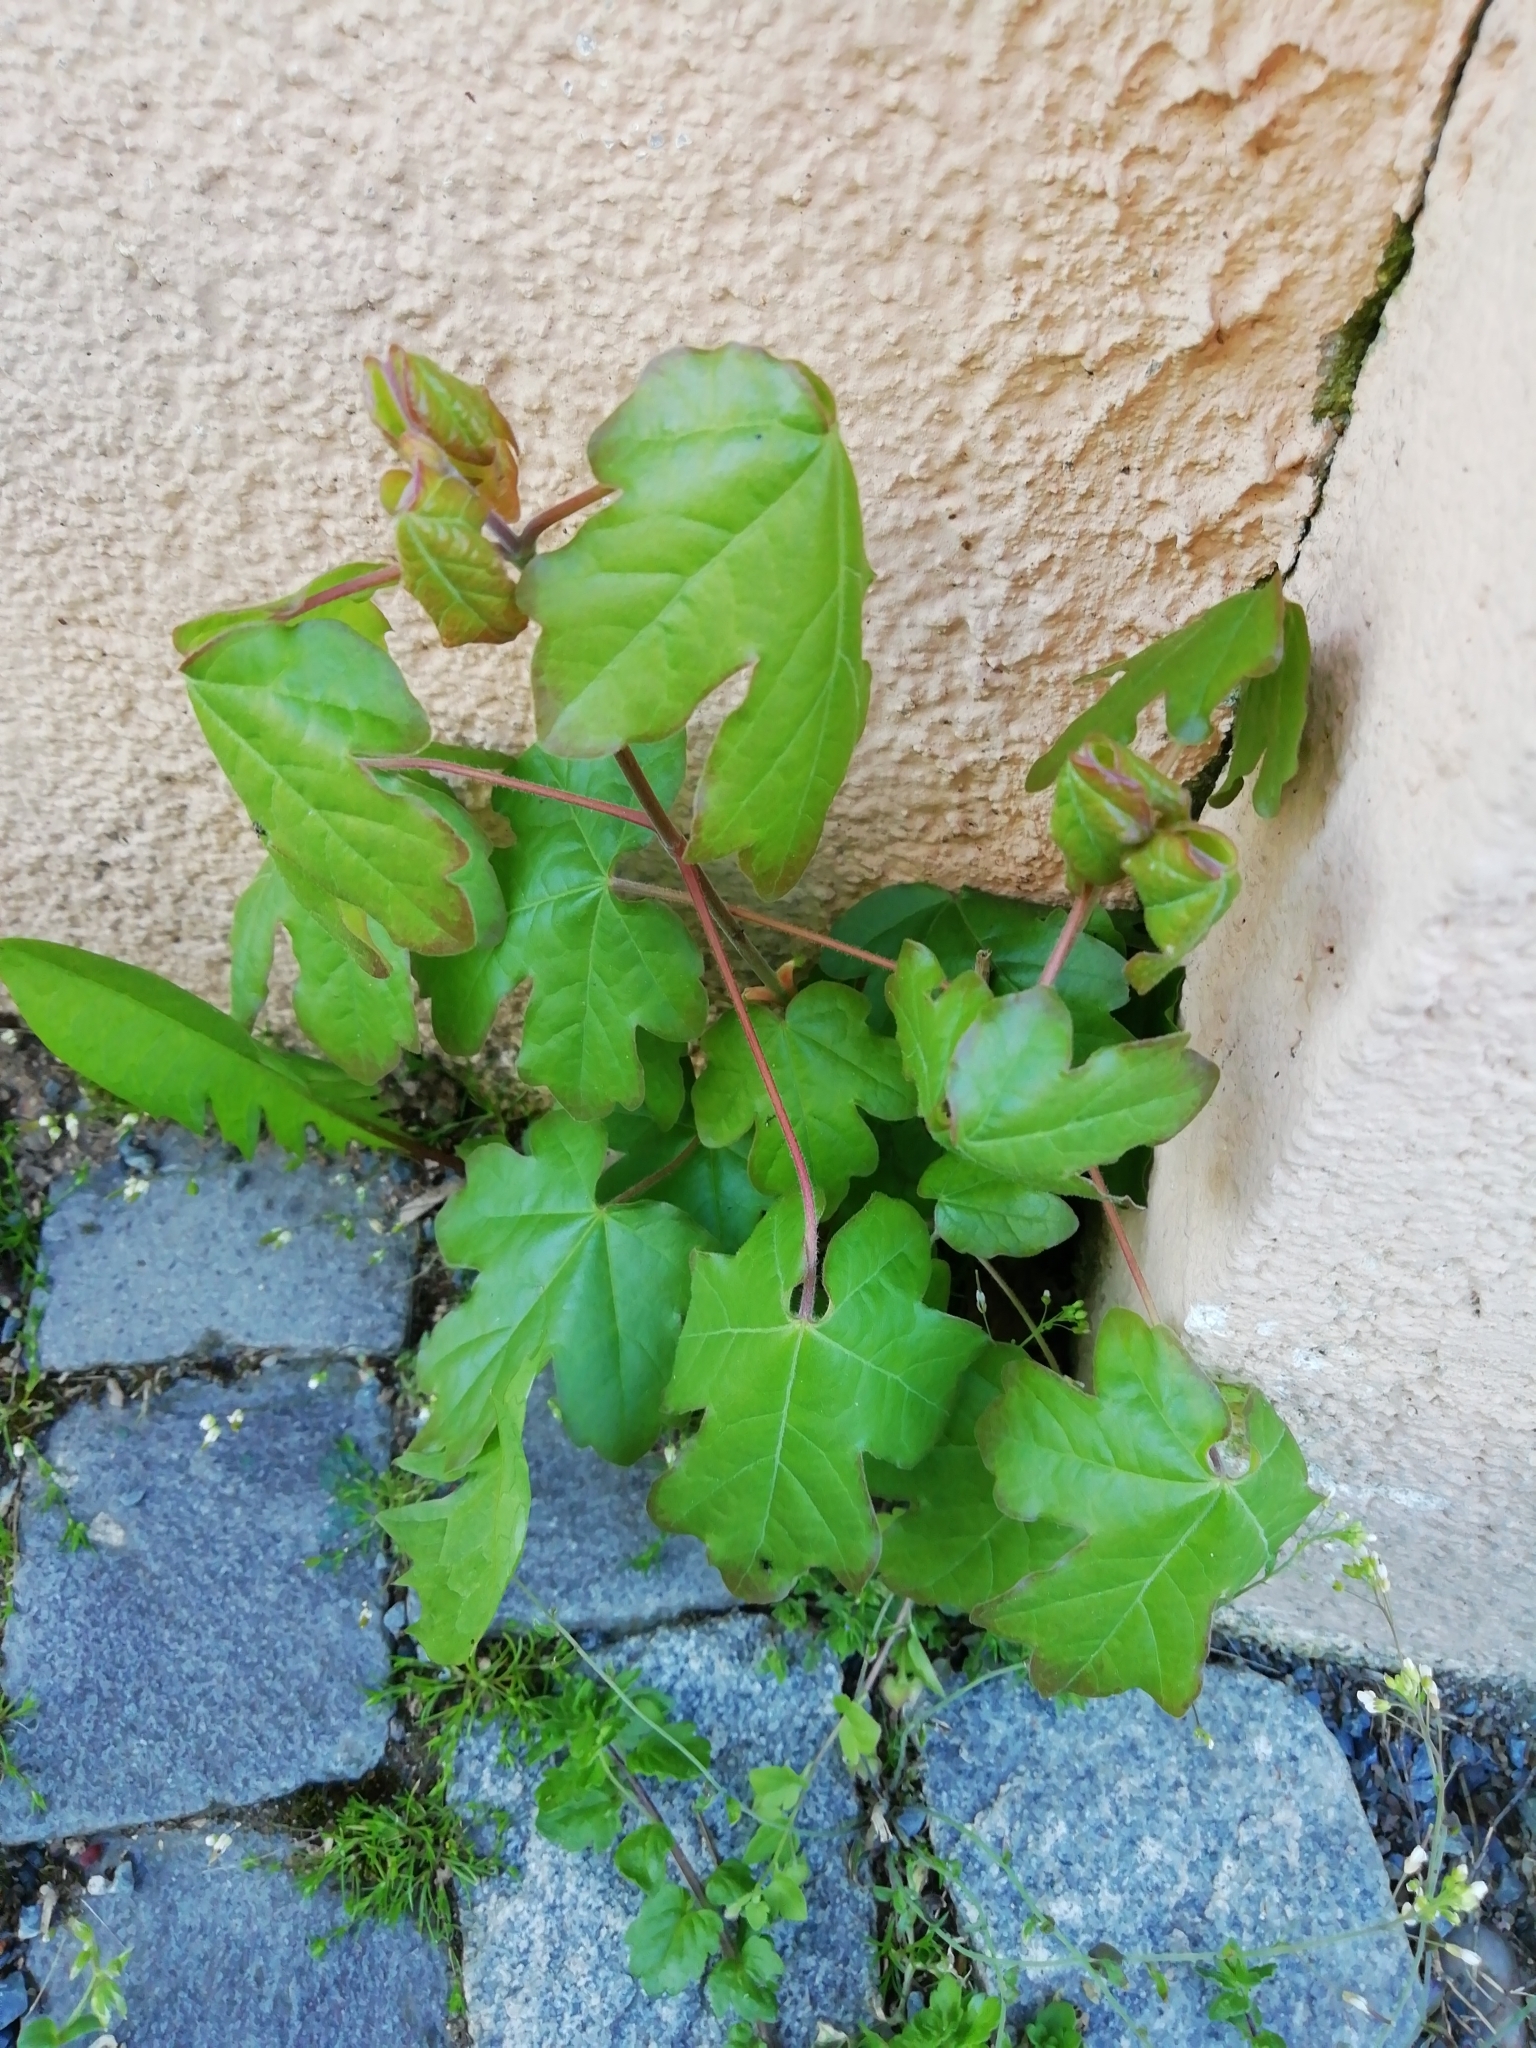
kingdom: Plantae
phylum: Tracheophyta
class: Magnoliopsida
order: Sapindales
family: Sapindaceae
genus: Acer
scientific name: Acer campestre
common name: Field maple
